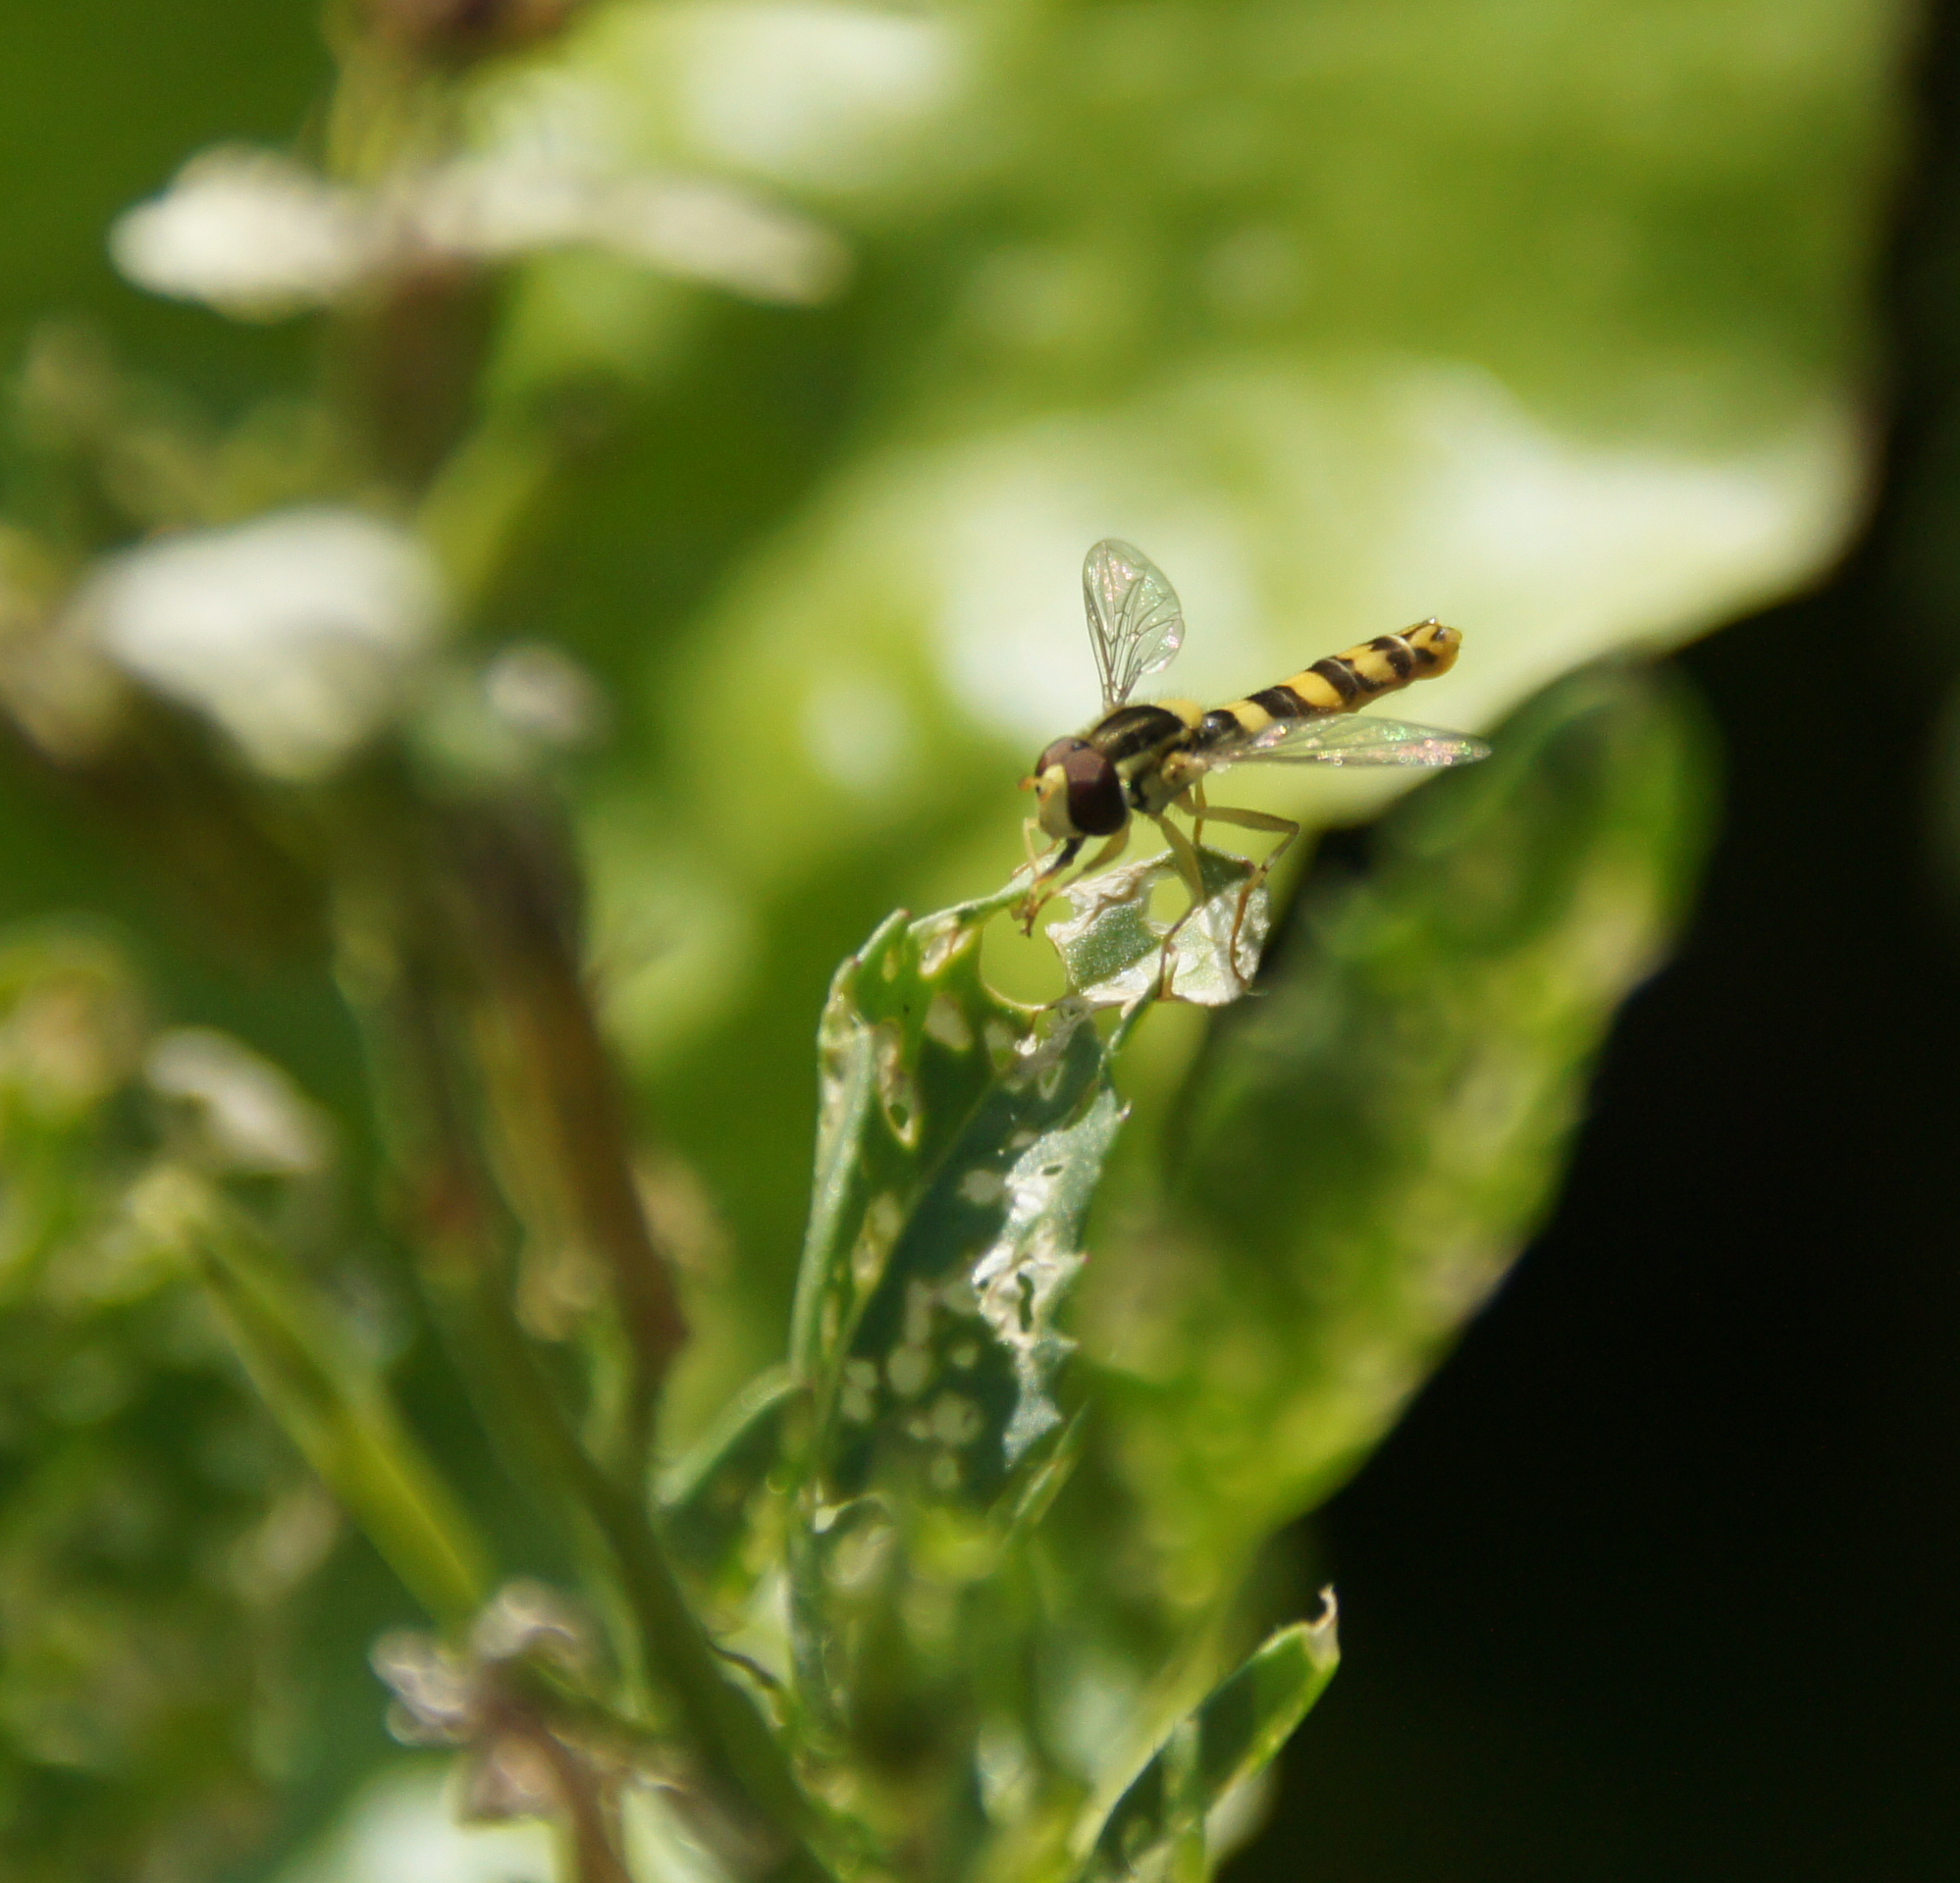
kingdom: Animalia
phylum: Arthropoda
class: Insecta
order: Diptera
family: Syrphidae
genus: Sphaerophoria
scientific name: Sphaerophoria scripta
